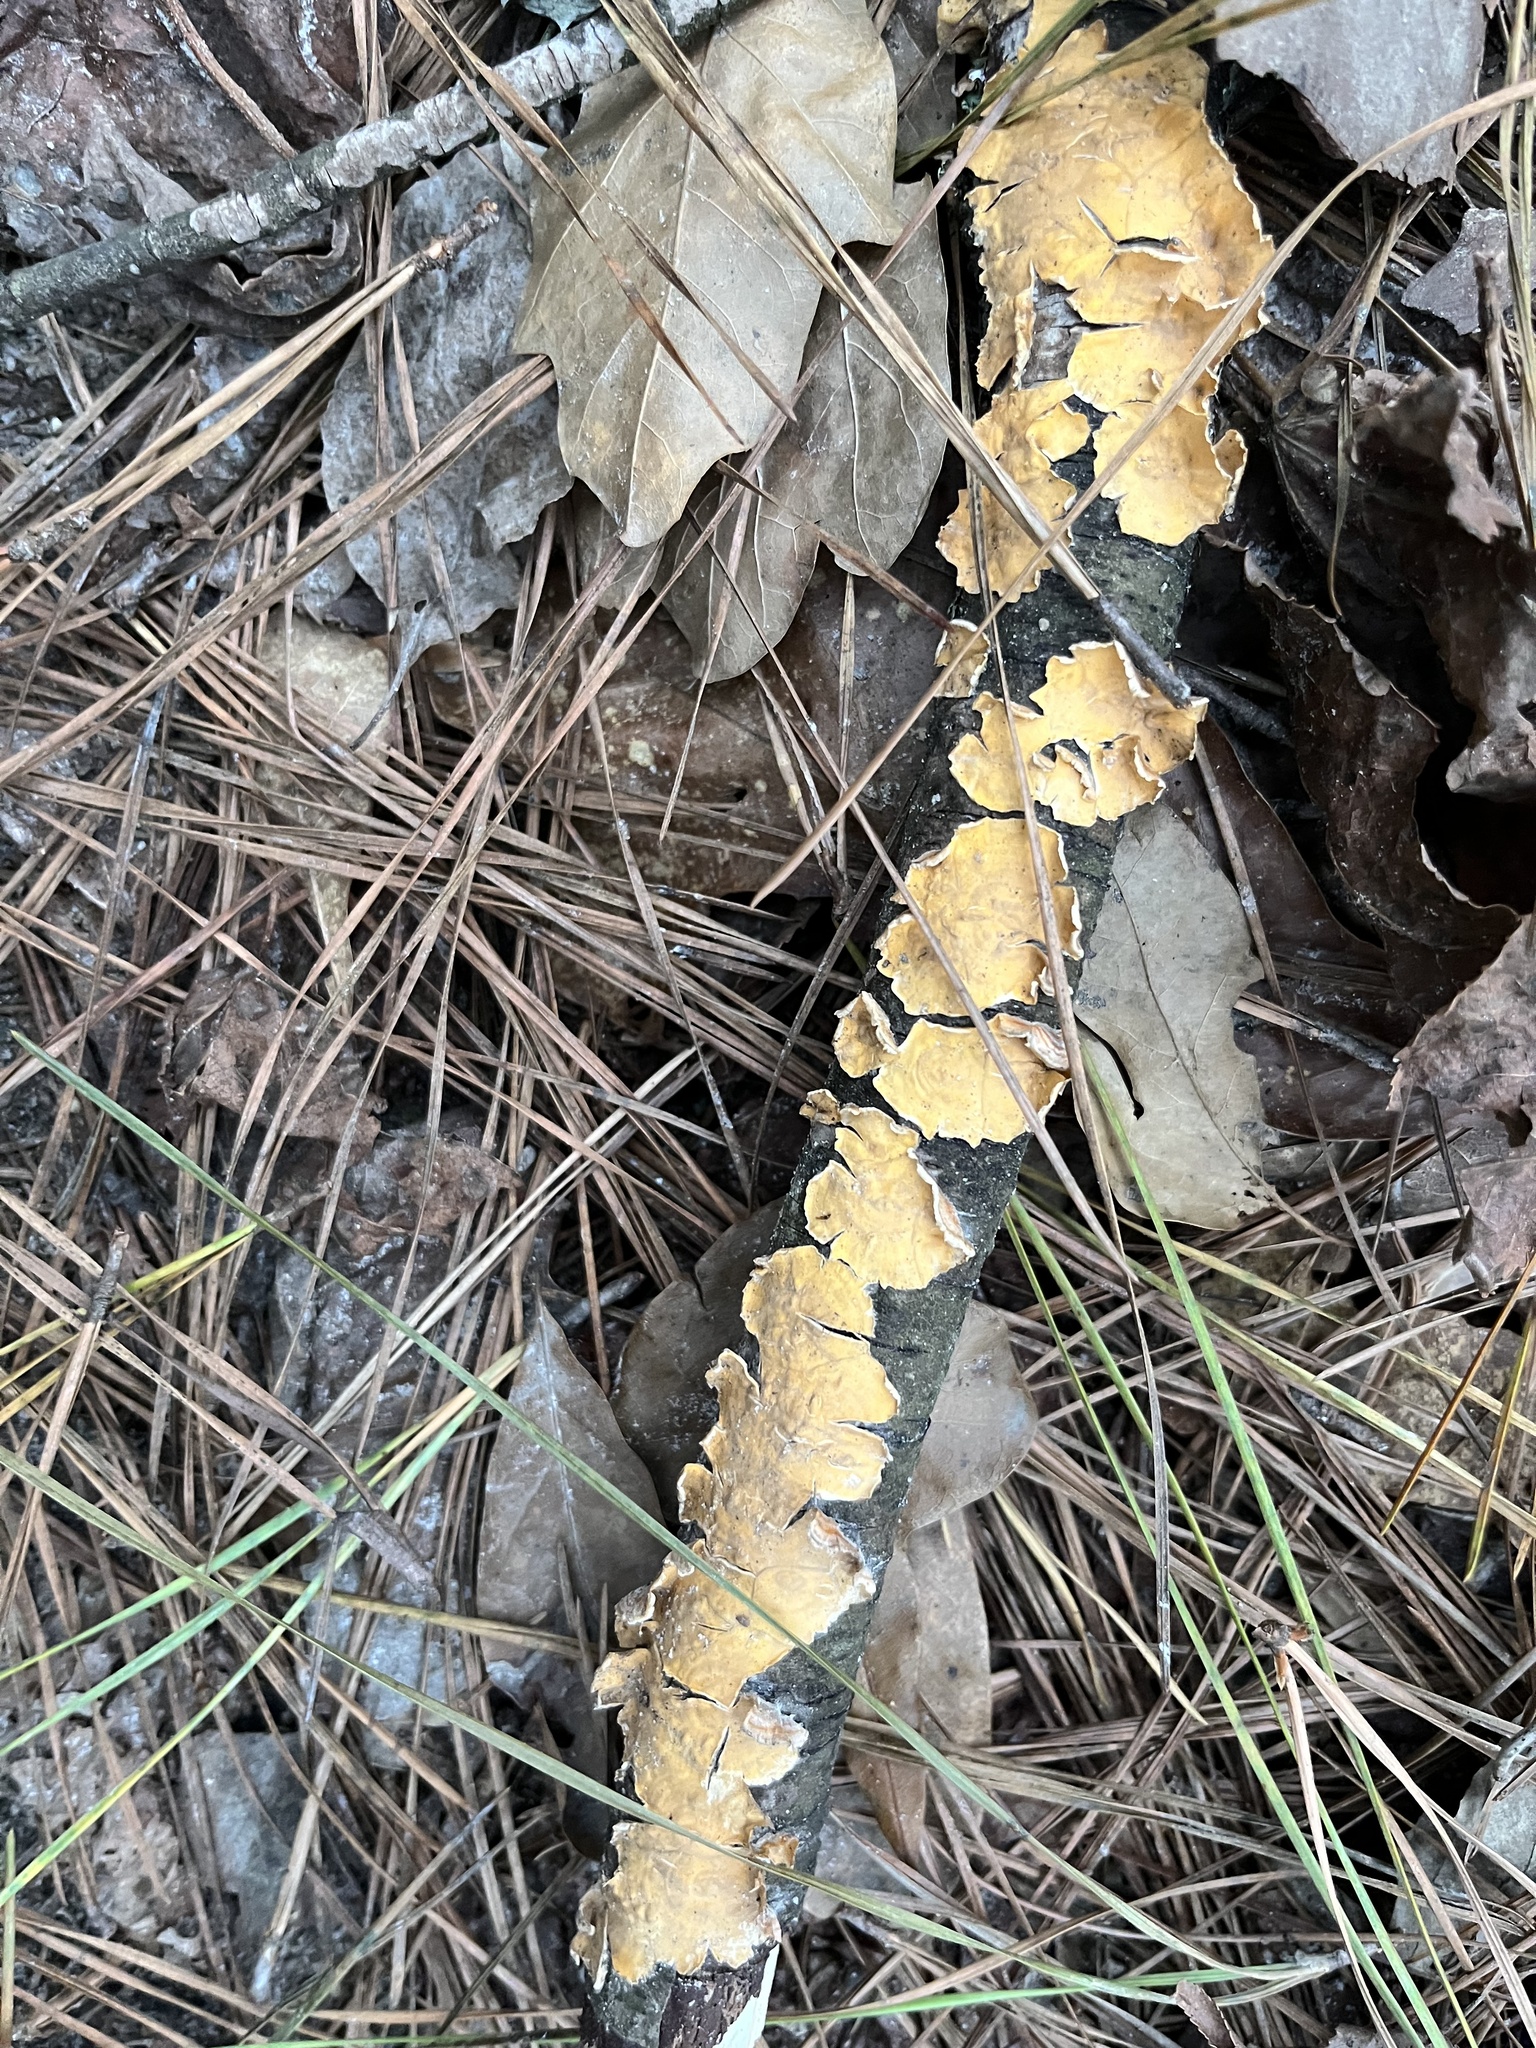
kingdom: Fungi
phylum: Basidiomycota
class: Agaricomycetes
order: Russulales
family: Stereaceae
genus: Stereum
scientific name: Stereum complicatum
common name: Crowded parchment
